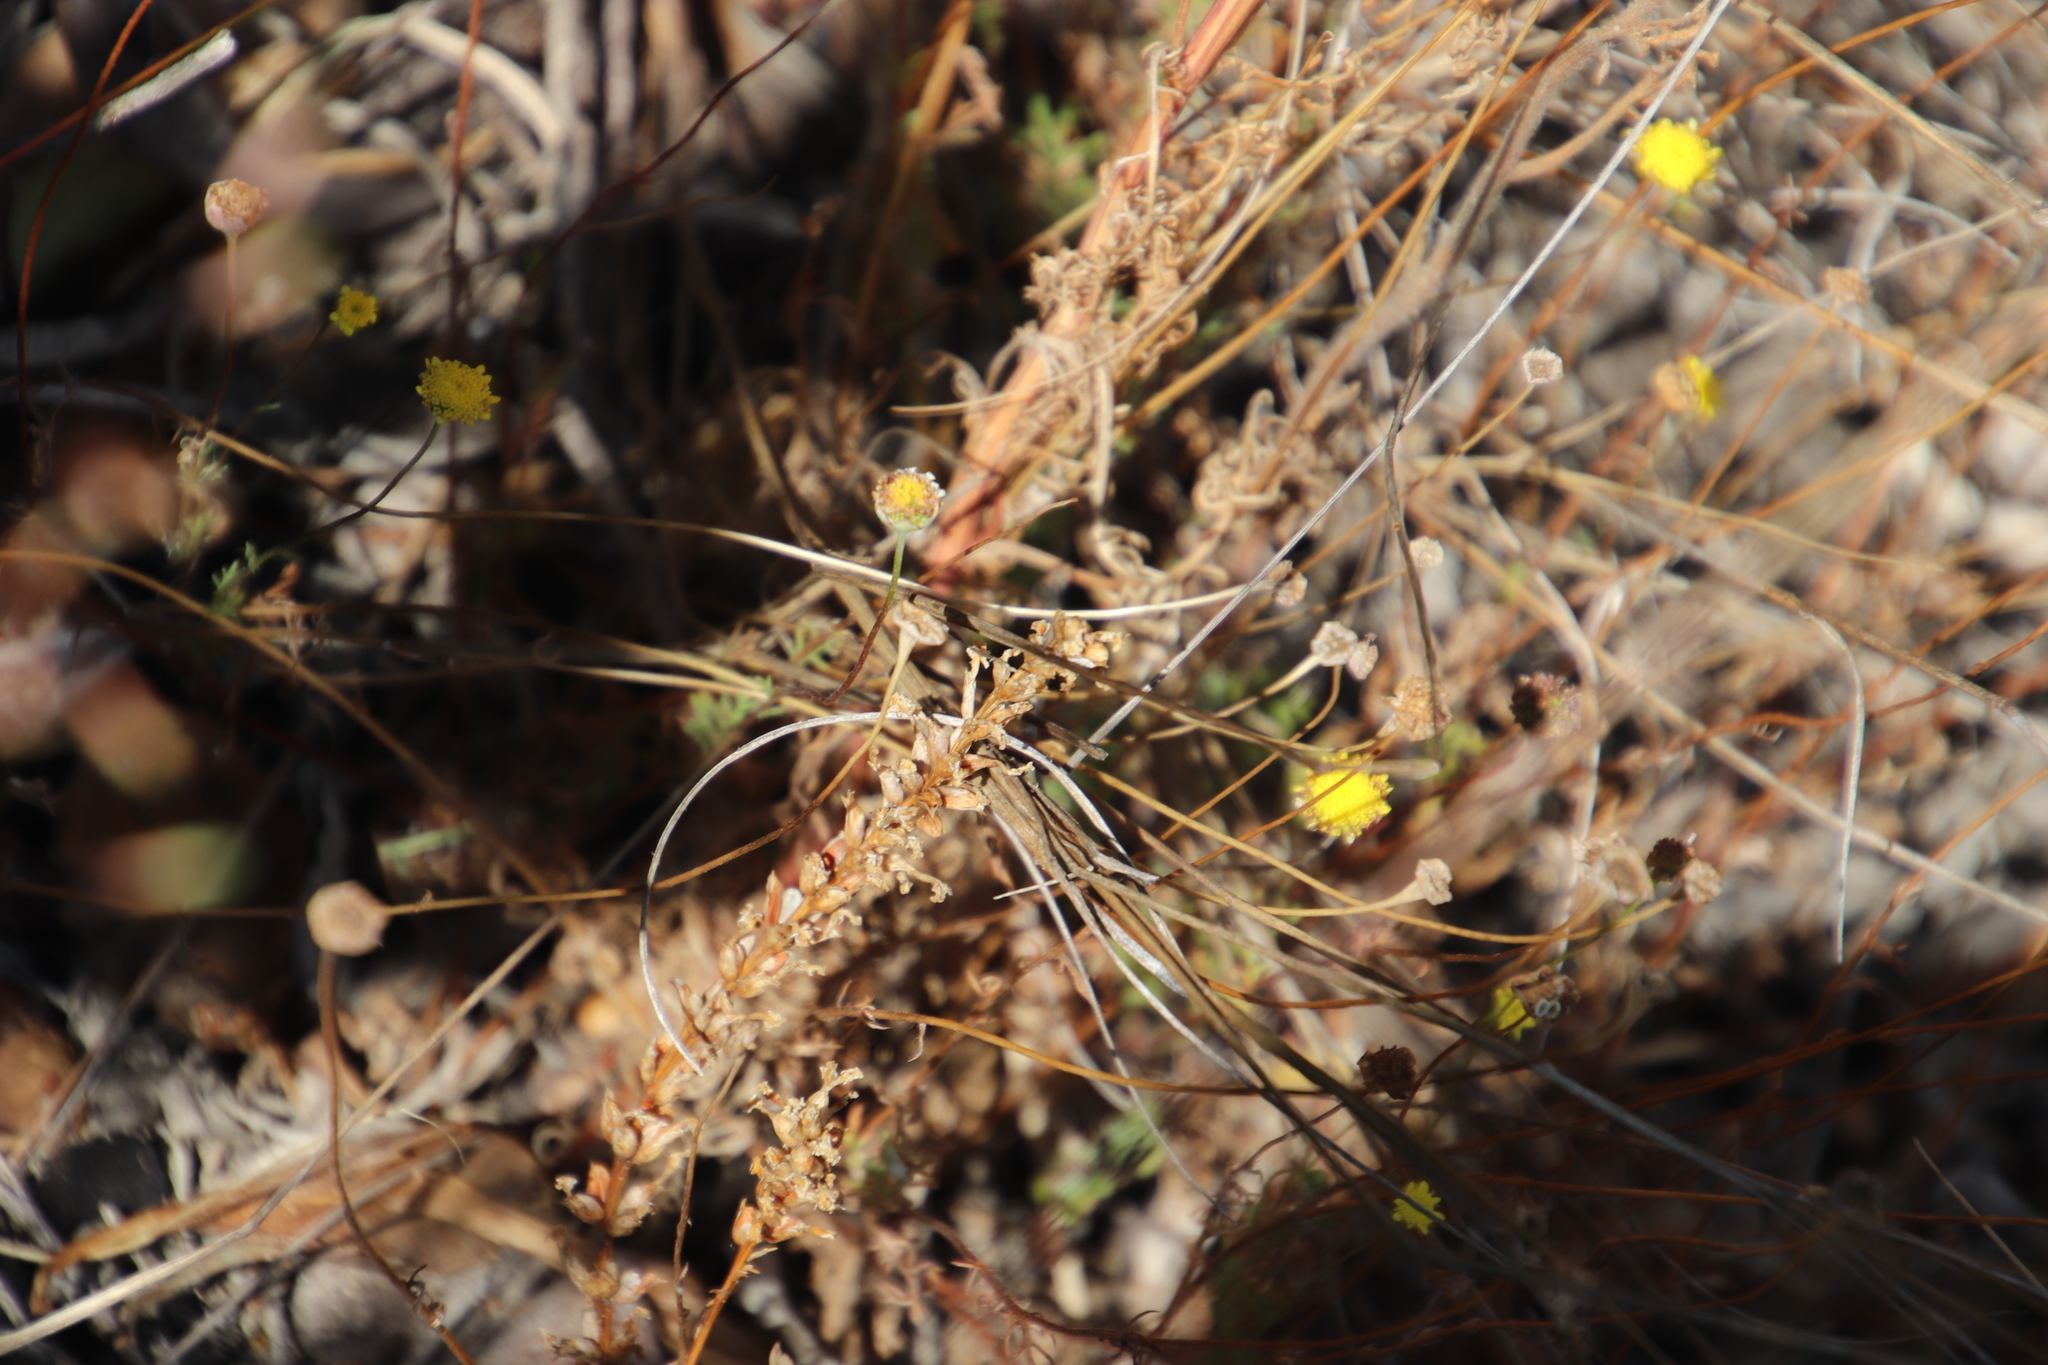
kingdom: Plantae
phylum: Tracheophyta
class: Magnoliopsida
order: Asterales
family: Asteraceae
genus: Cotula
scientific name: Cotula pruinosa
